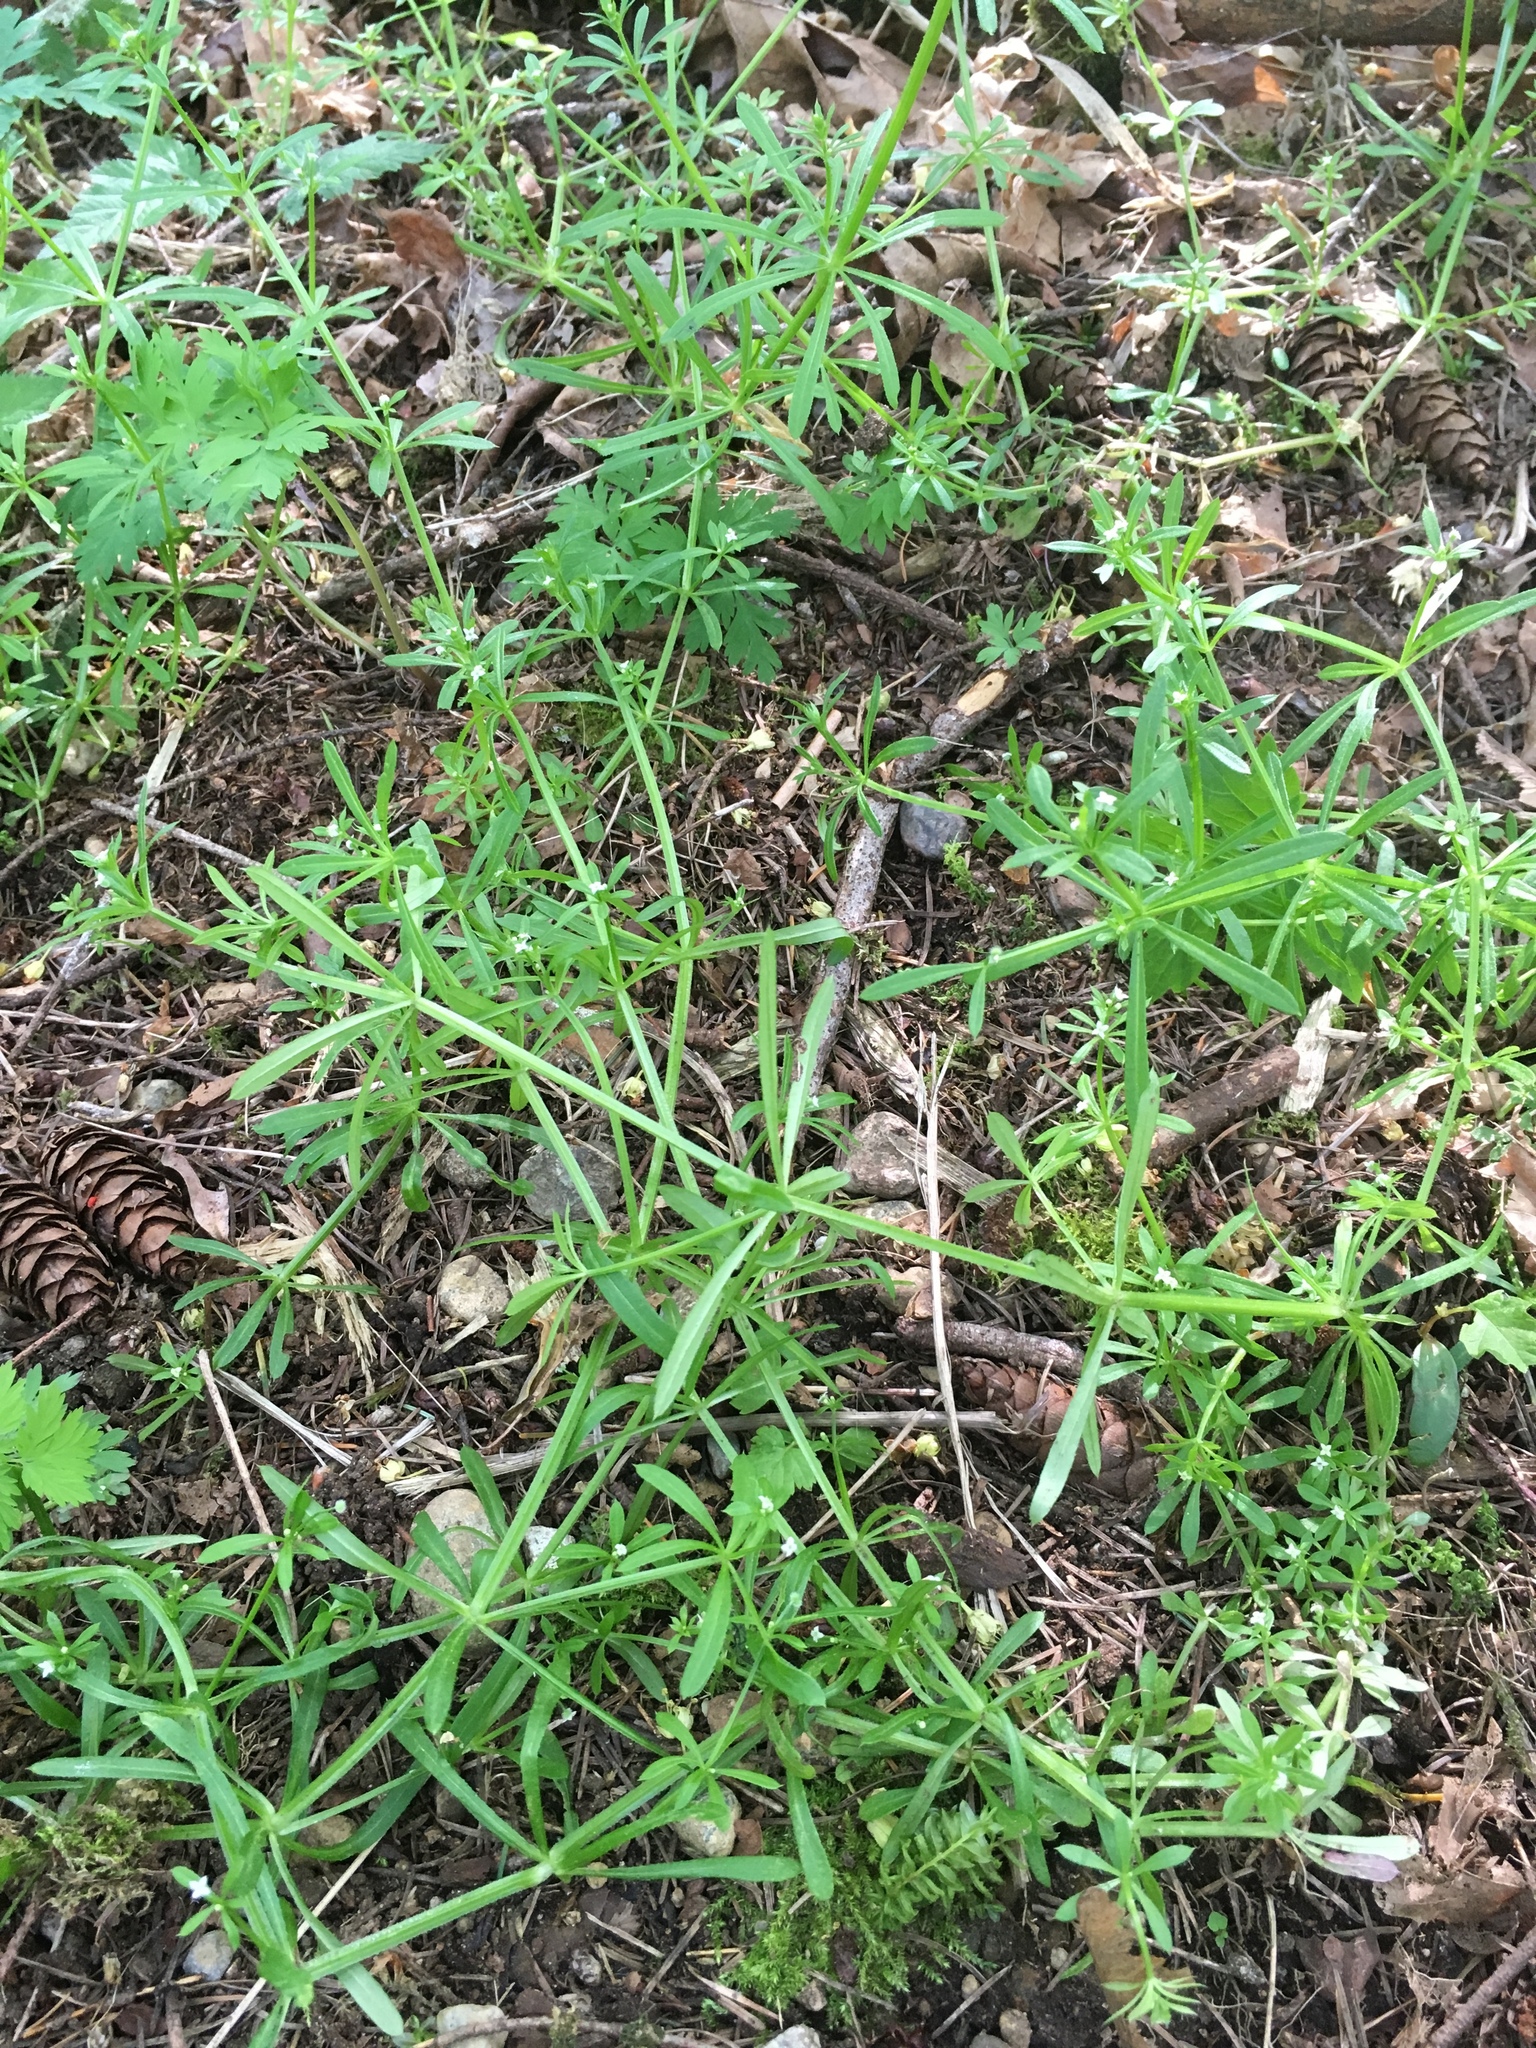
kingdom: Plantae
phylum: Tracheophyta
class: Magnoliopsida
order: Gentianales
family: Rubiaceae
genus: Galium
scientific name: Galium aparine
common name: Cleavers
